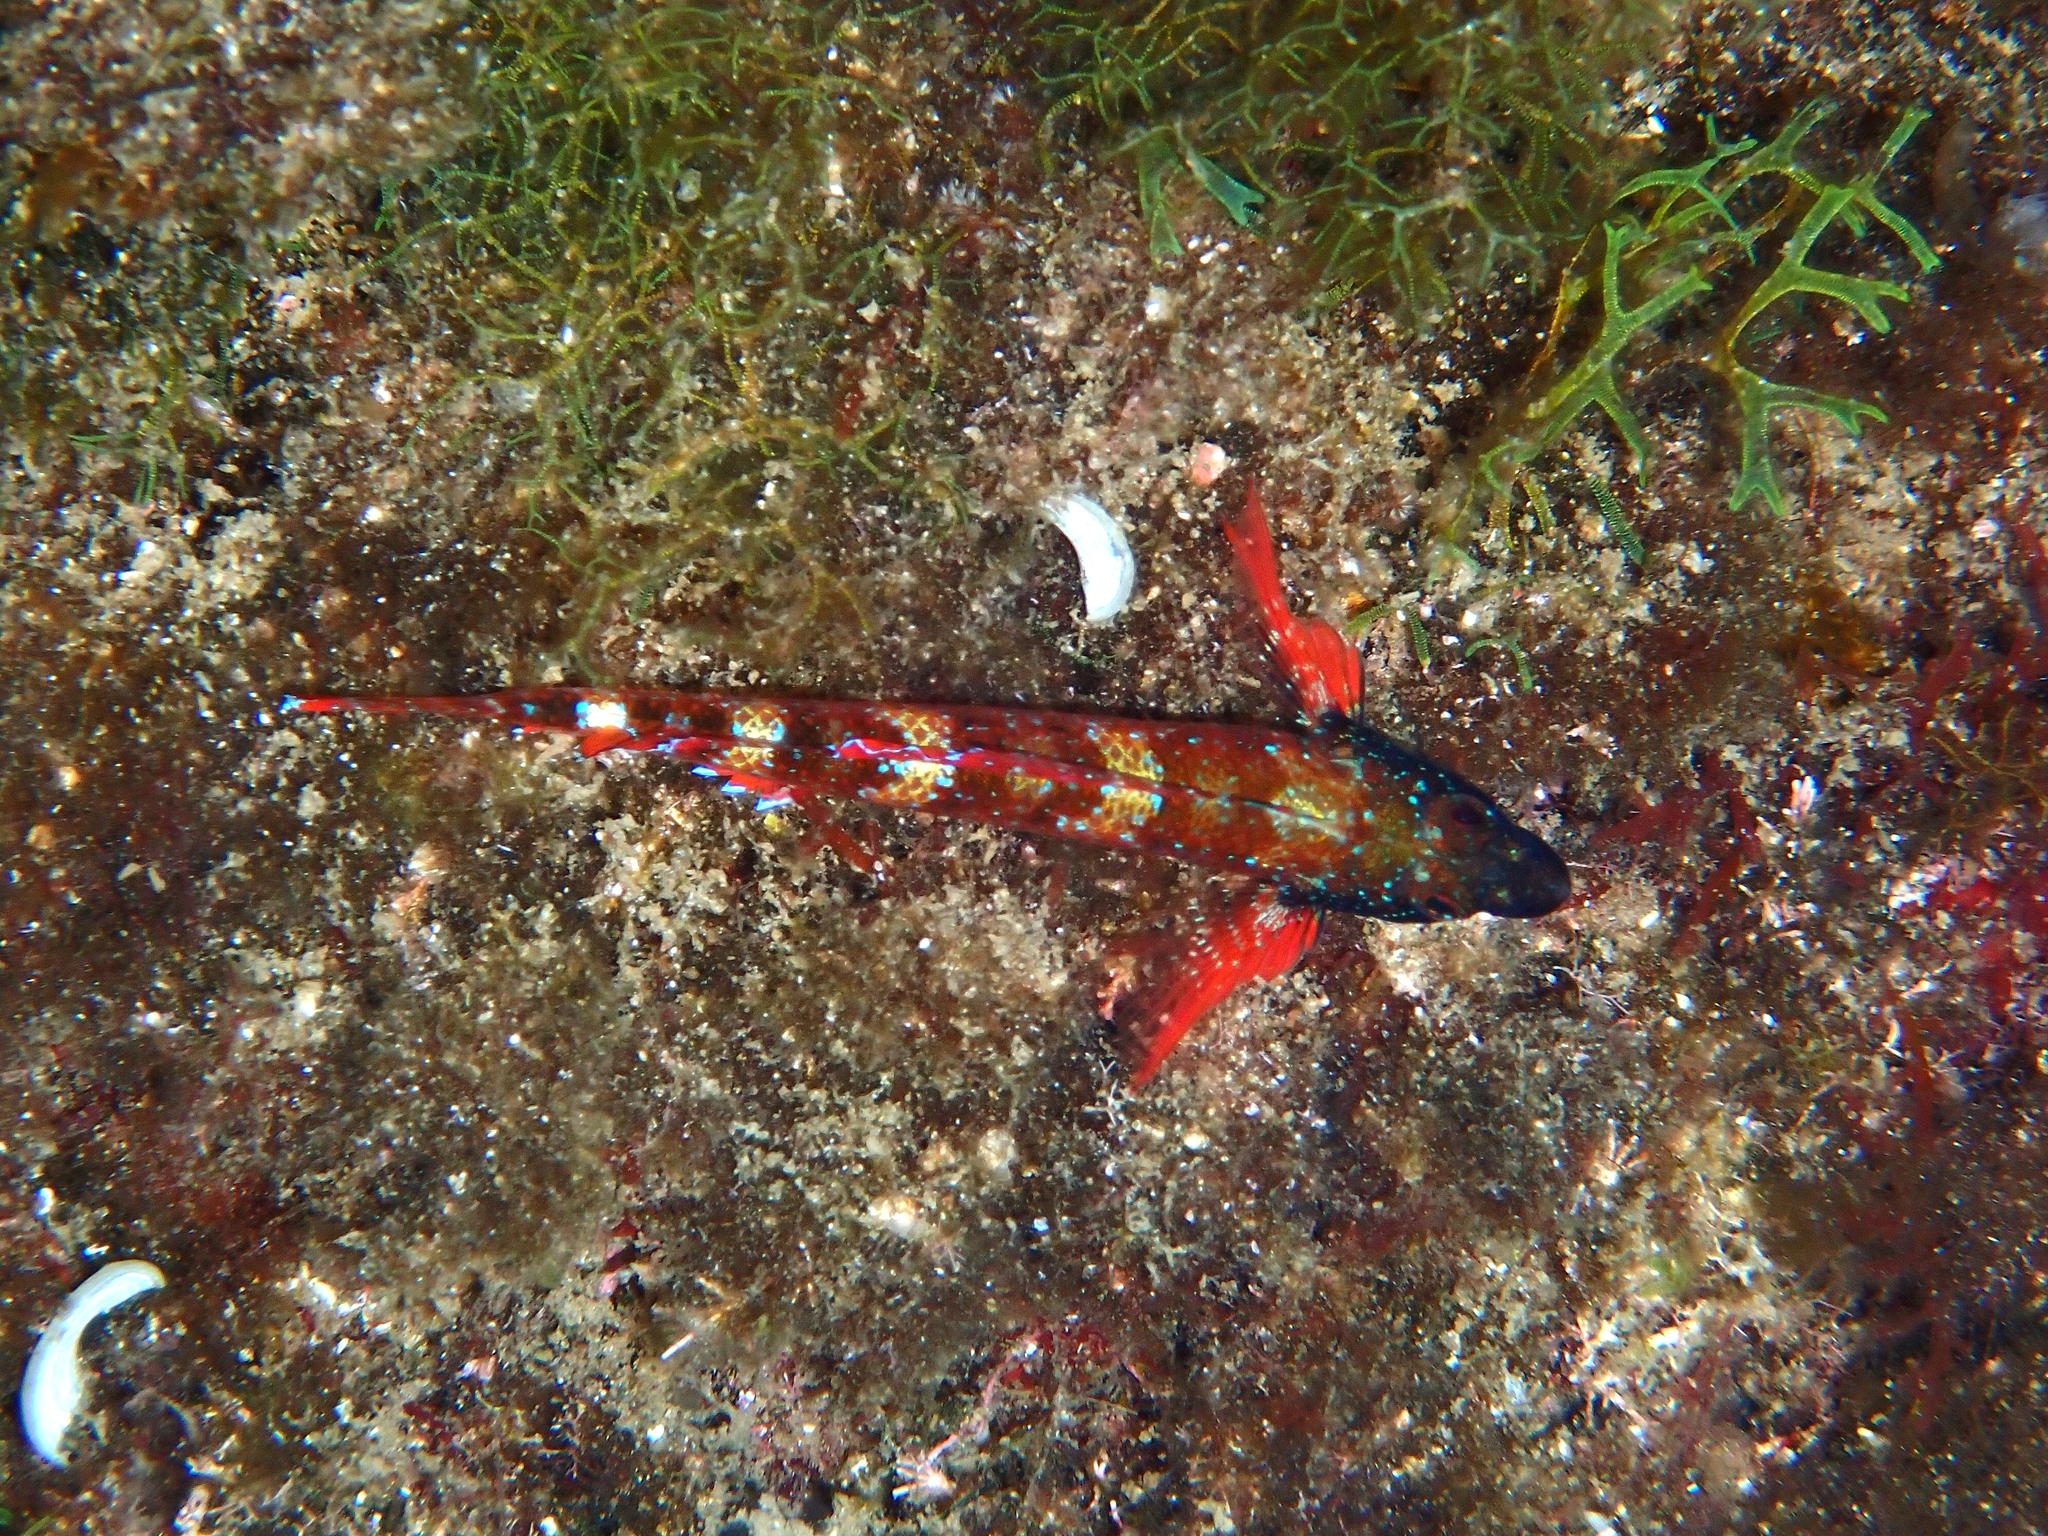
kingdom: Animalia
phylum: Chordata
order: Perciformes
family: Tripterygiidae
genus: Tripterygion
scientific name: Tripterygion tripteronotum
